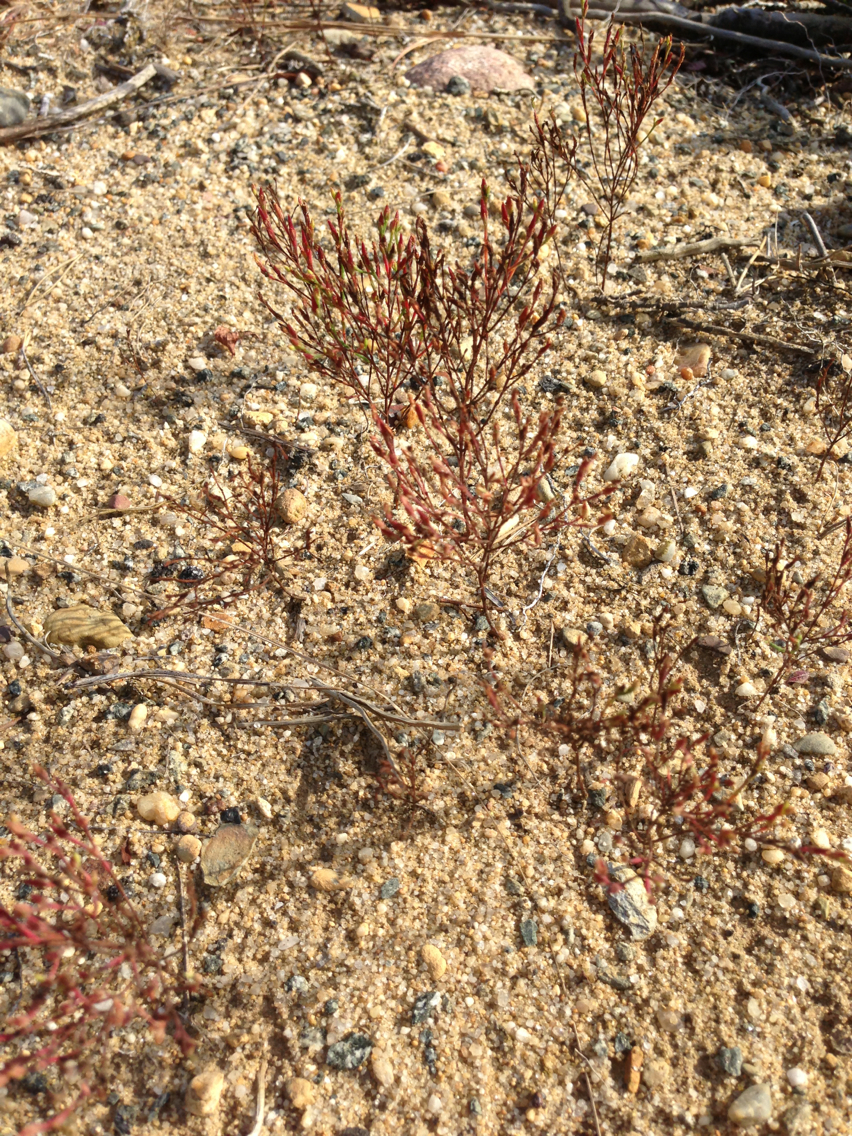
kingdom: Plantae
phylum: Tracheophyta
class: Magnoliopsida
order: Malpighiales
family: Hypericaceae
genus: Hypericum
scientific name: Hypericum gentianoides
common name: Gentian-leaved st. john's-wort
